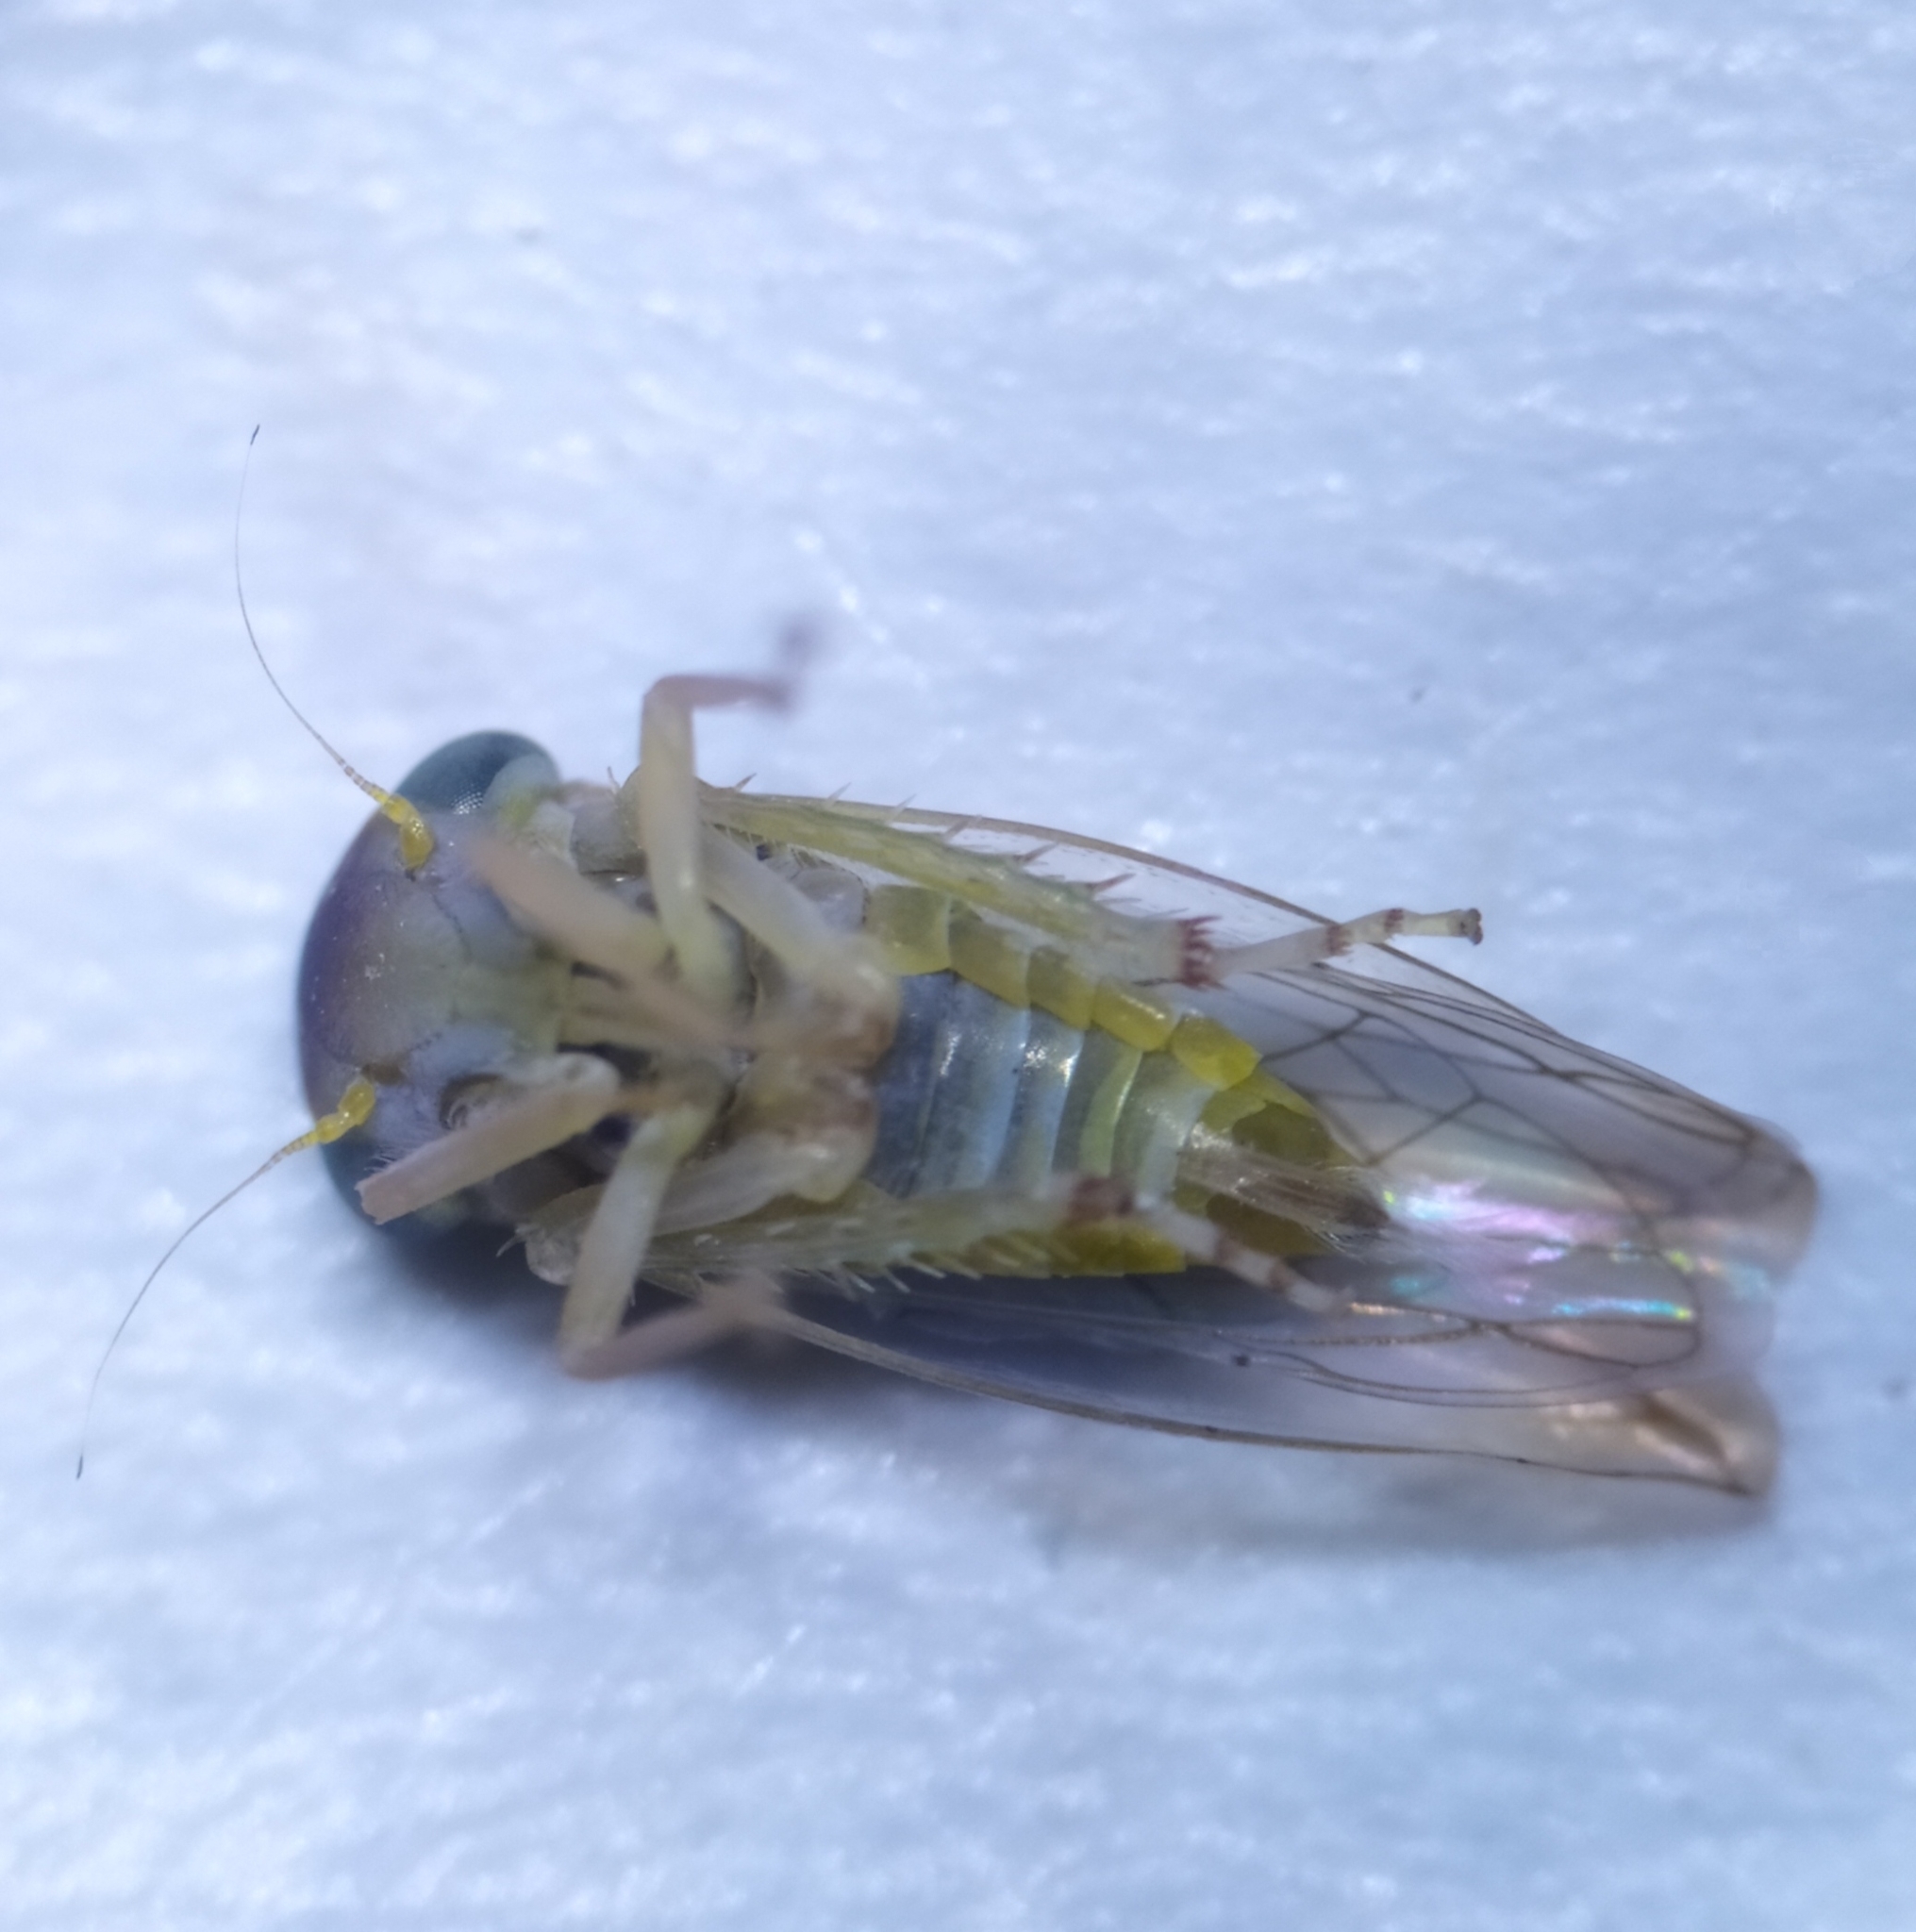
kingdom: Animalia
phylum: Arthropoda
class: Insecta
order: Hemiptera
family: Cicadellidae
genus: Viridicerus
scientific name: Viridicerus ustulatus
